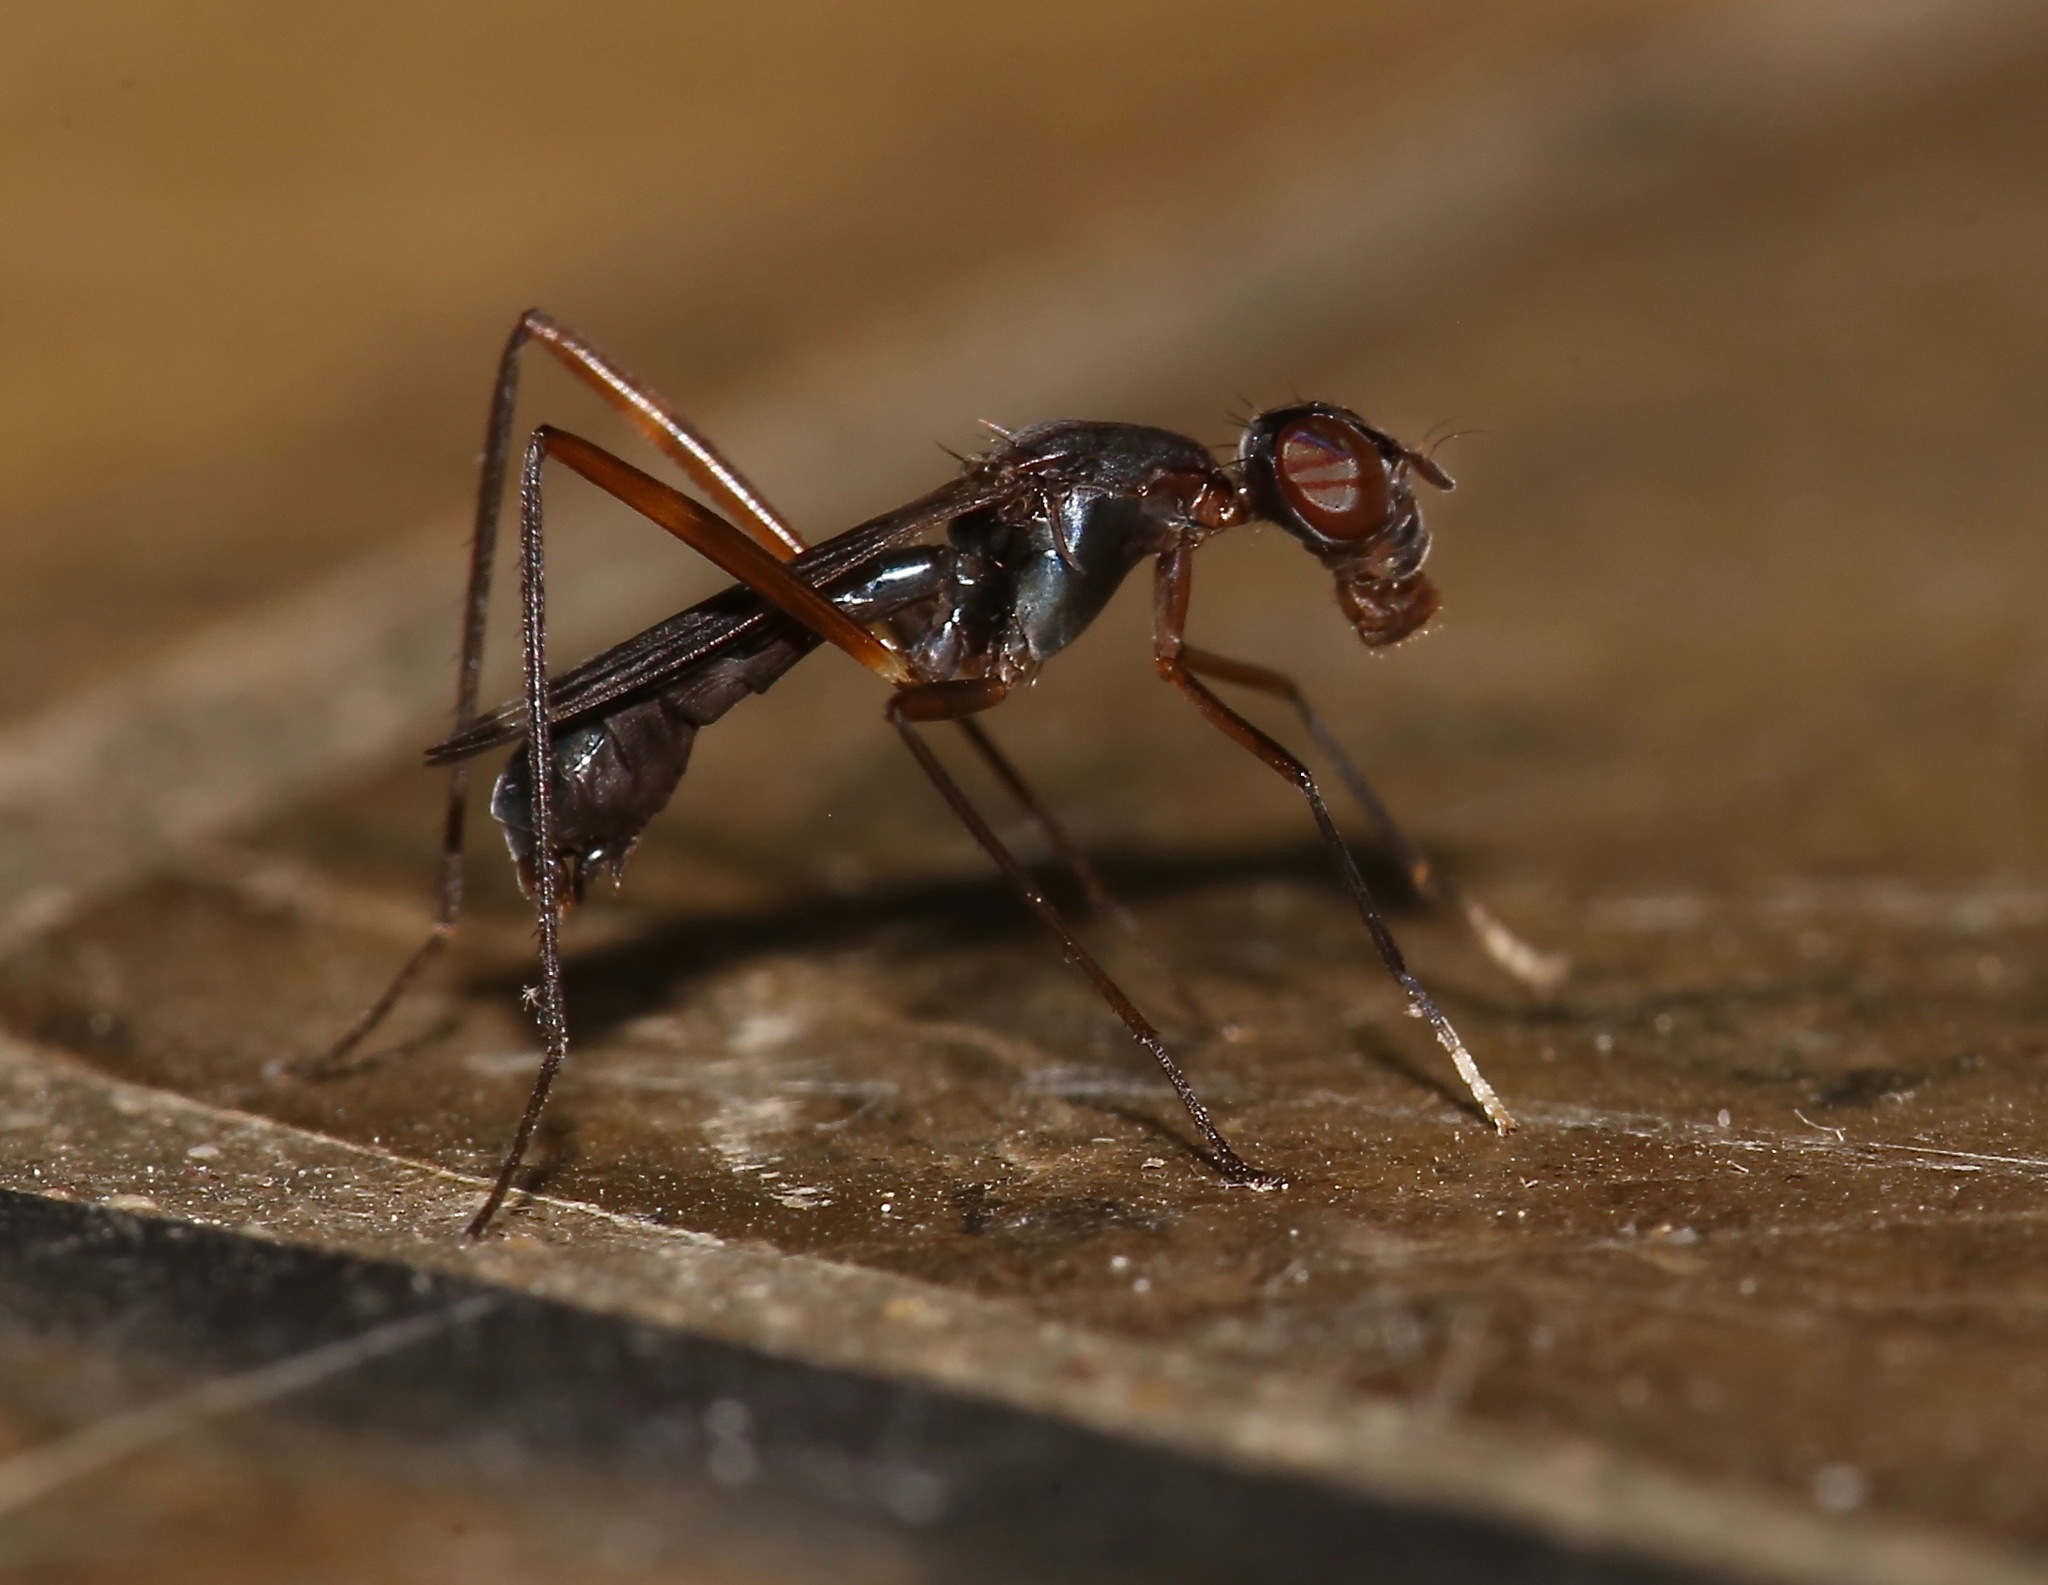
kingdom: Animalia
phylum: Arthropoda
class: Insecta
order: Diptera
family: Micropezidae
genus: Taeniaptera
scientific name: Taeniaptera trivittata
